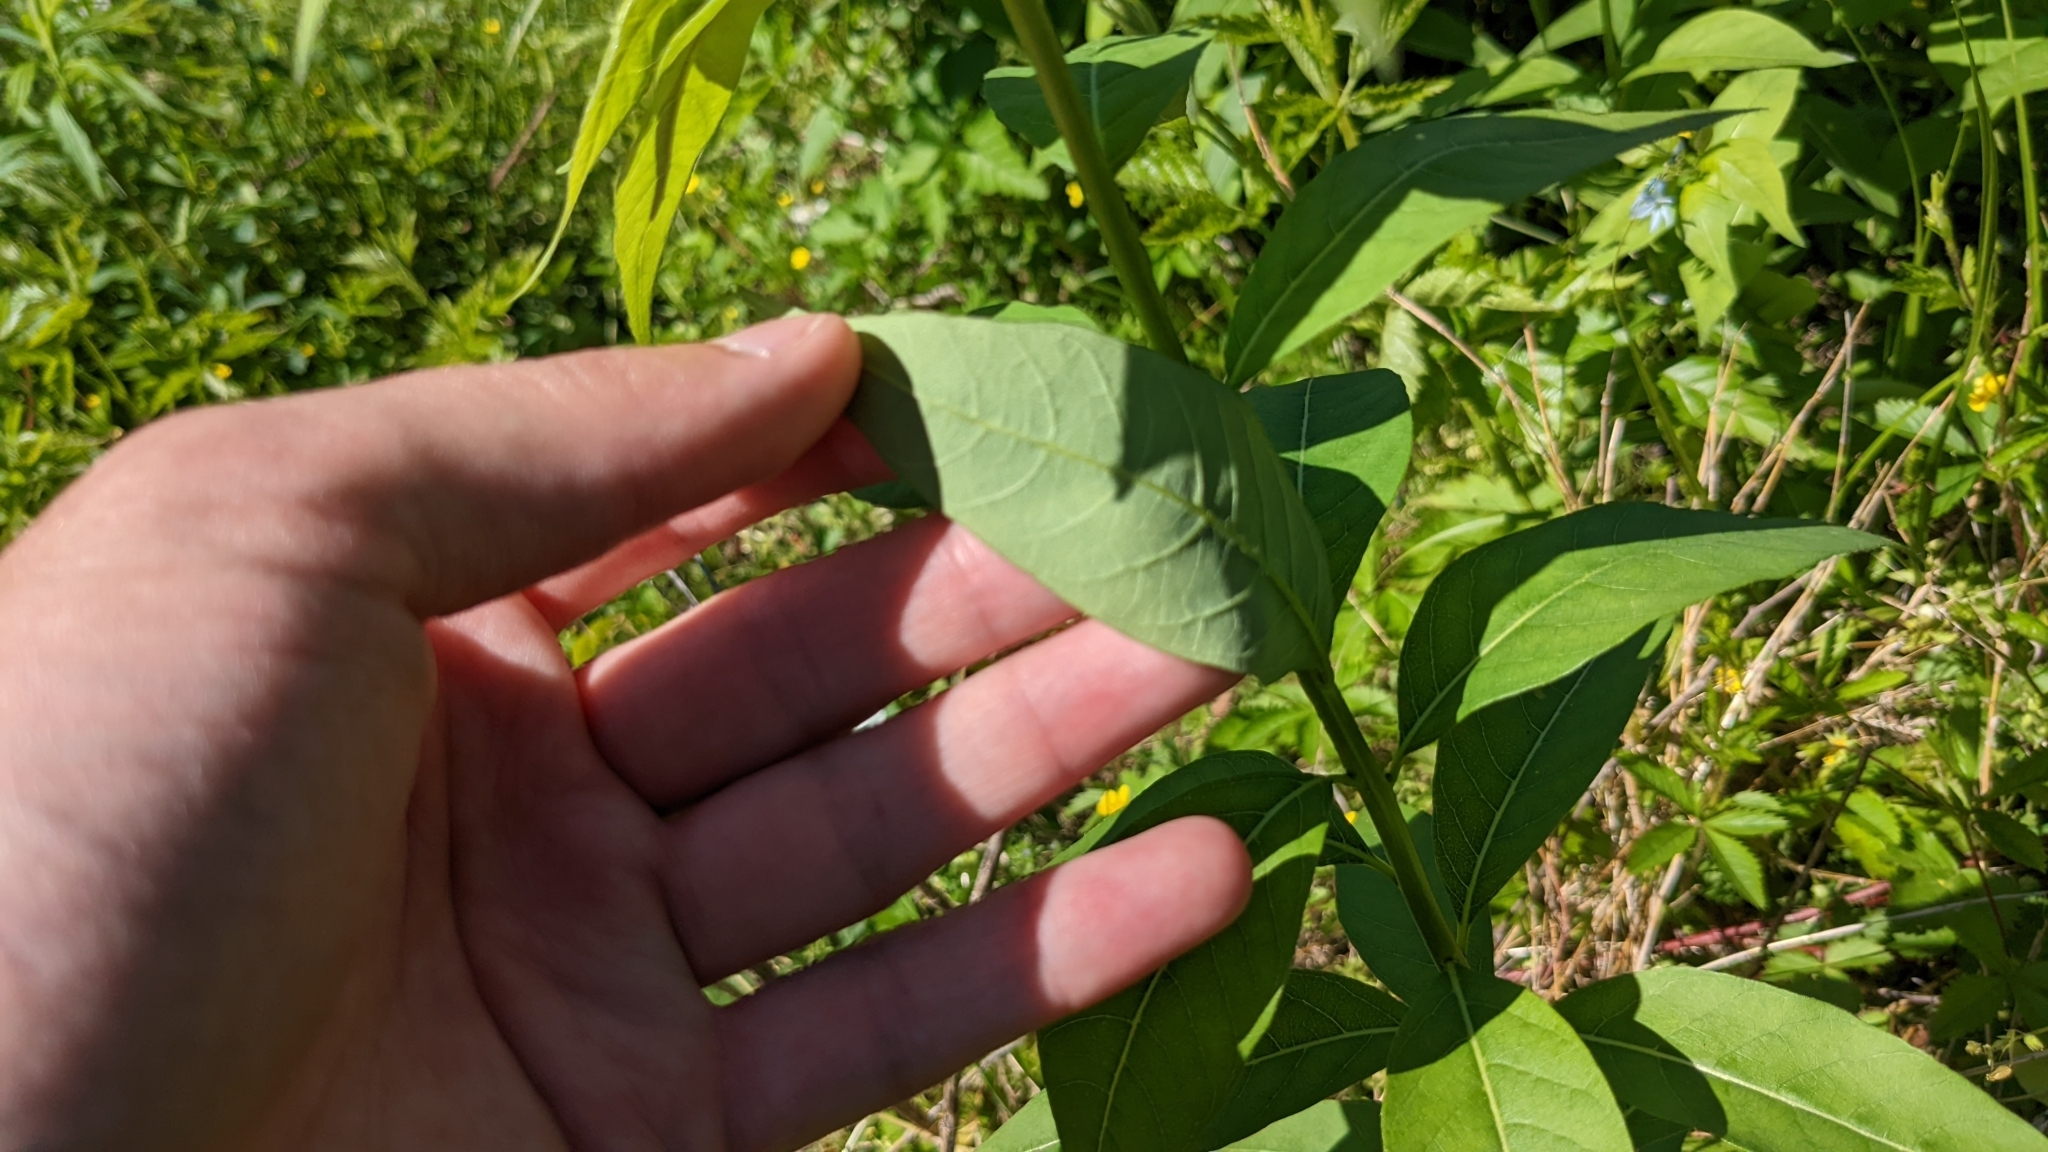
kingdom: Plantae
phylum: Tracheophyta
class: Magnoliopsida
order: Gentianales
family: Apocynaceae
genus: Amsonia
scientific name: Amsonia tabernaemontana
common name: Texas-star
